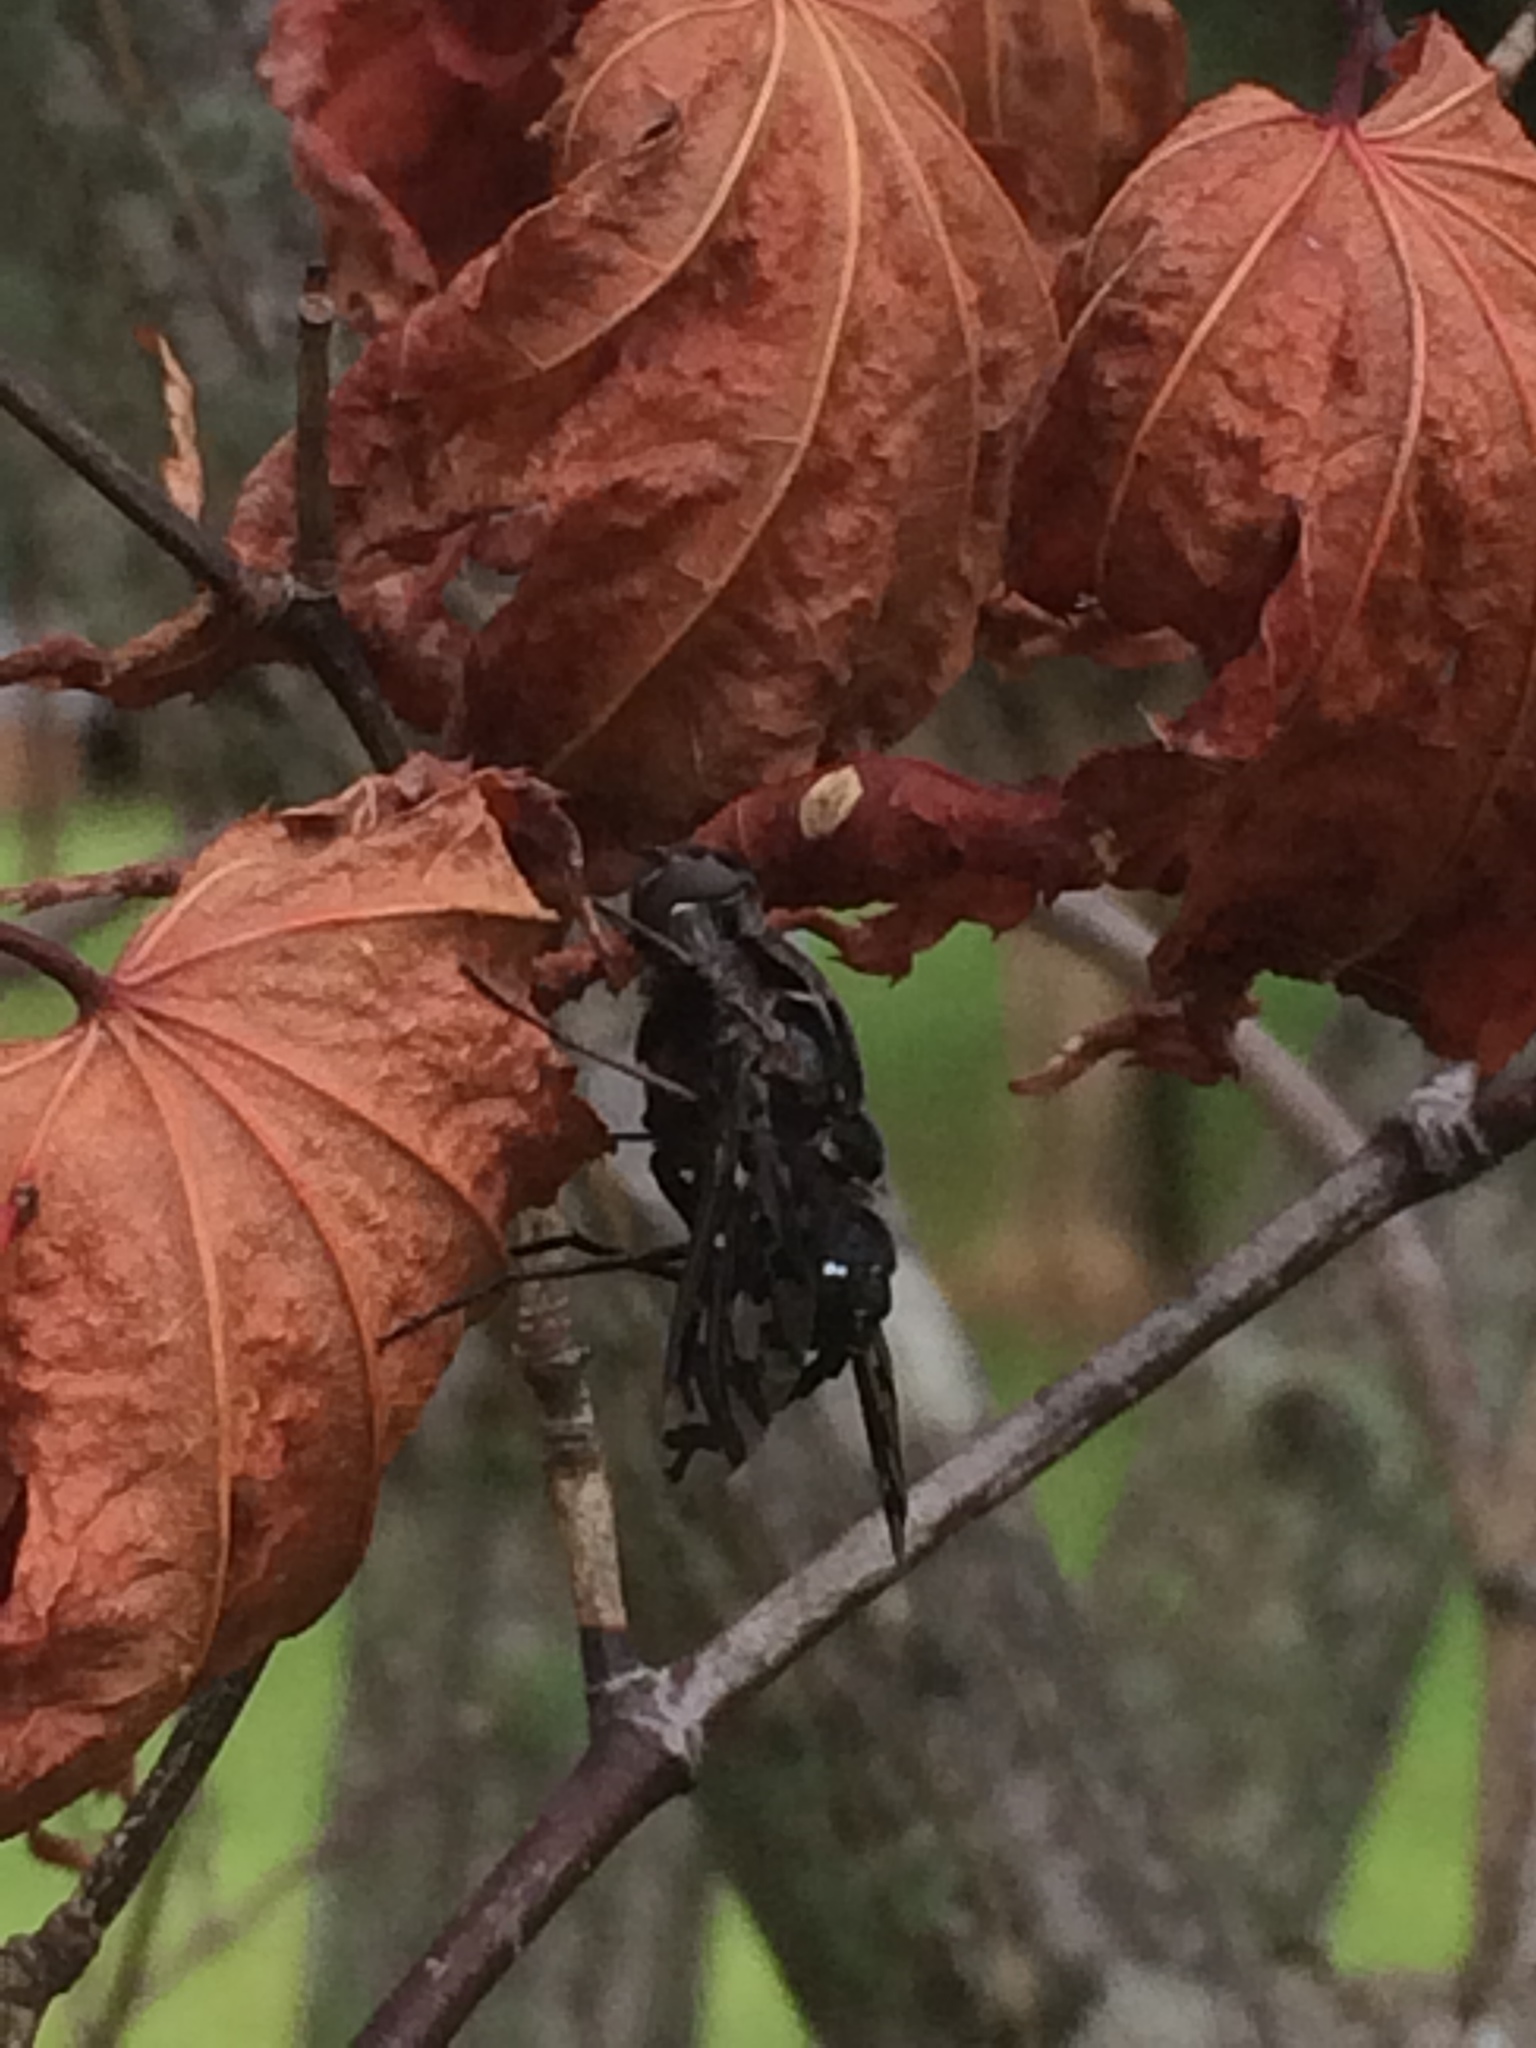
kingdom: Animalia
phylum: Arthropoda
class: Insecta
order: Diptera
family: Bombyliidae
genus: Xenox
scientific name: Xenox tigrinus
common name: Tiger bee fly
